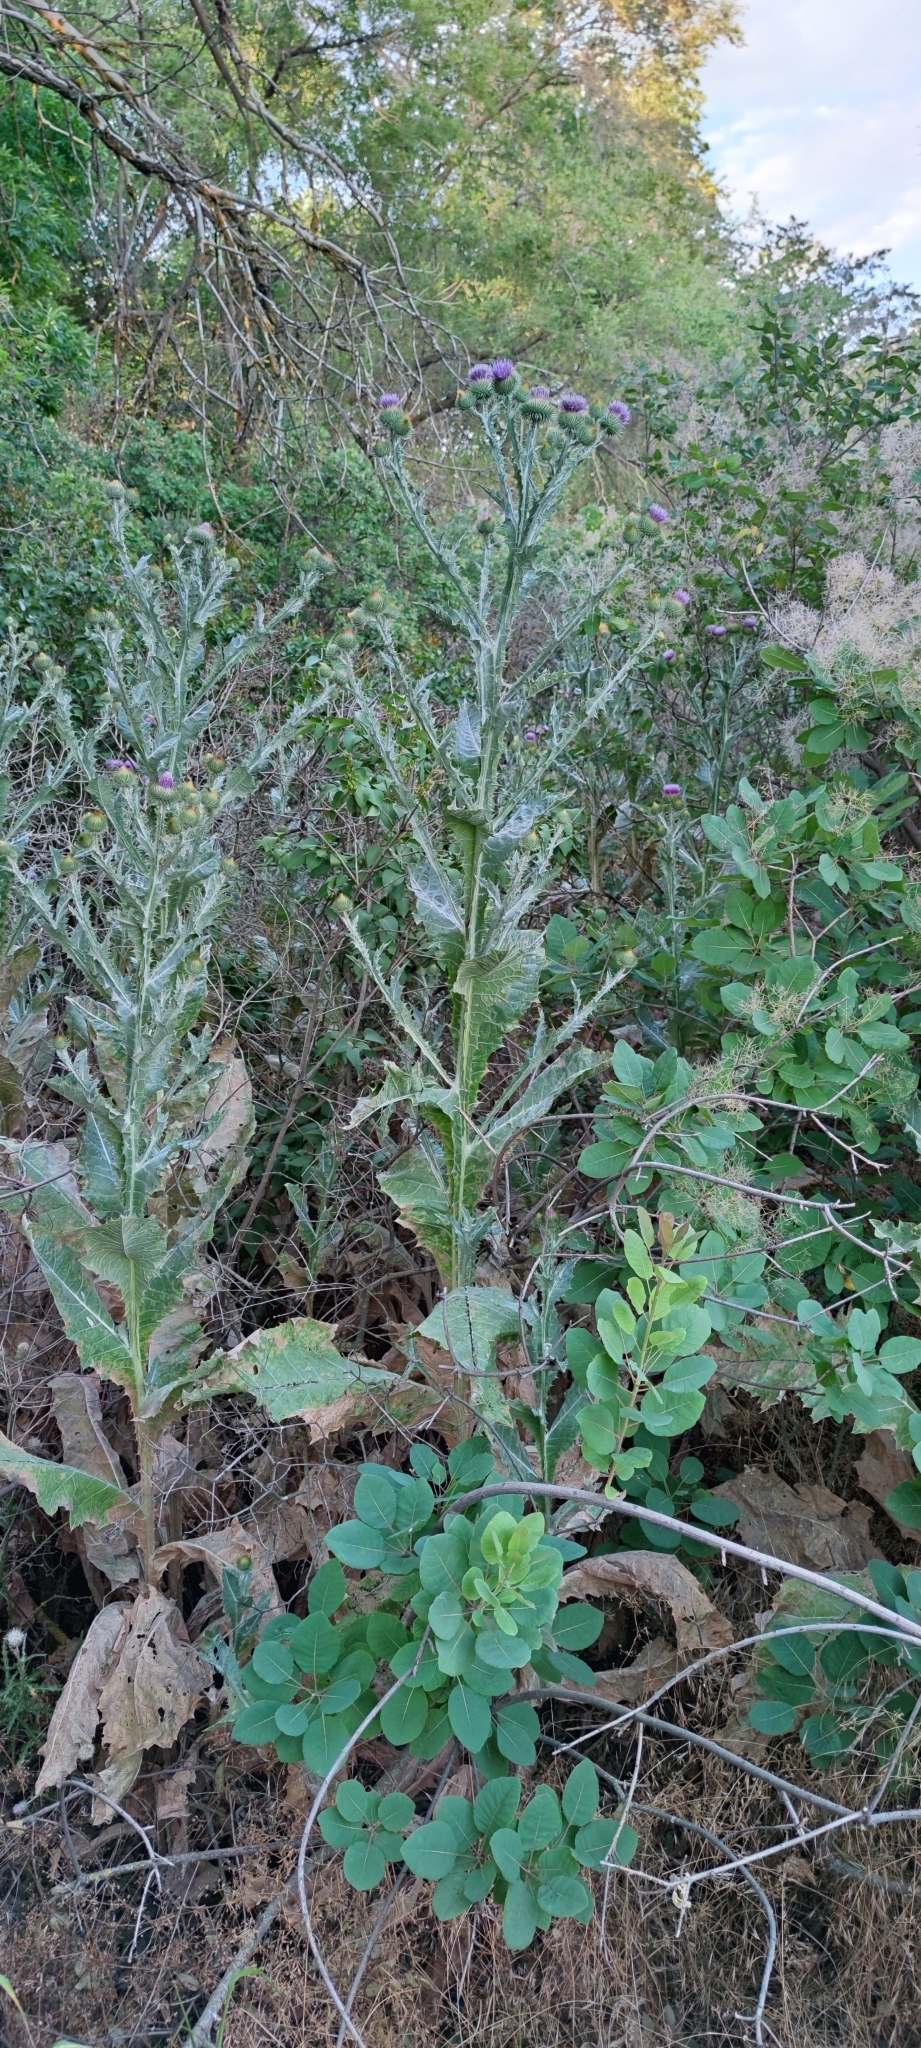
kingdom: Plantae
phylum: Tracheophyta
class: Magnoliopsida
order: Asterales
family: Asteraceae
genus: Onopordum
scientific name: Onopordum acanthium
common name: Scotch thistle
